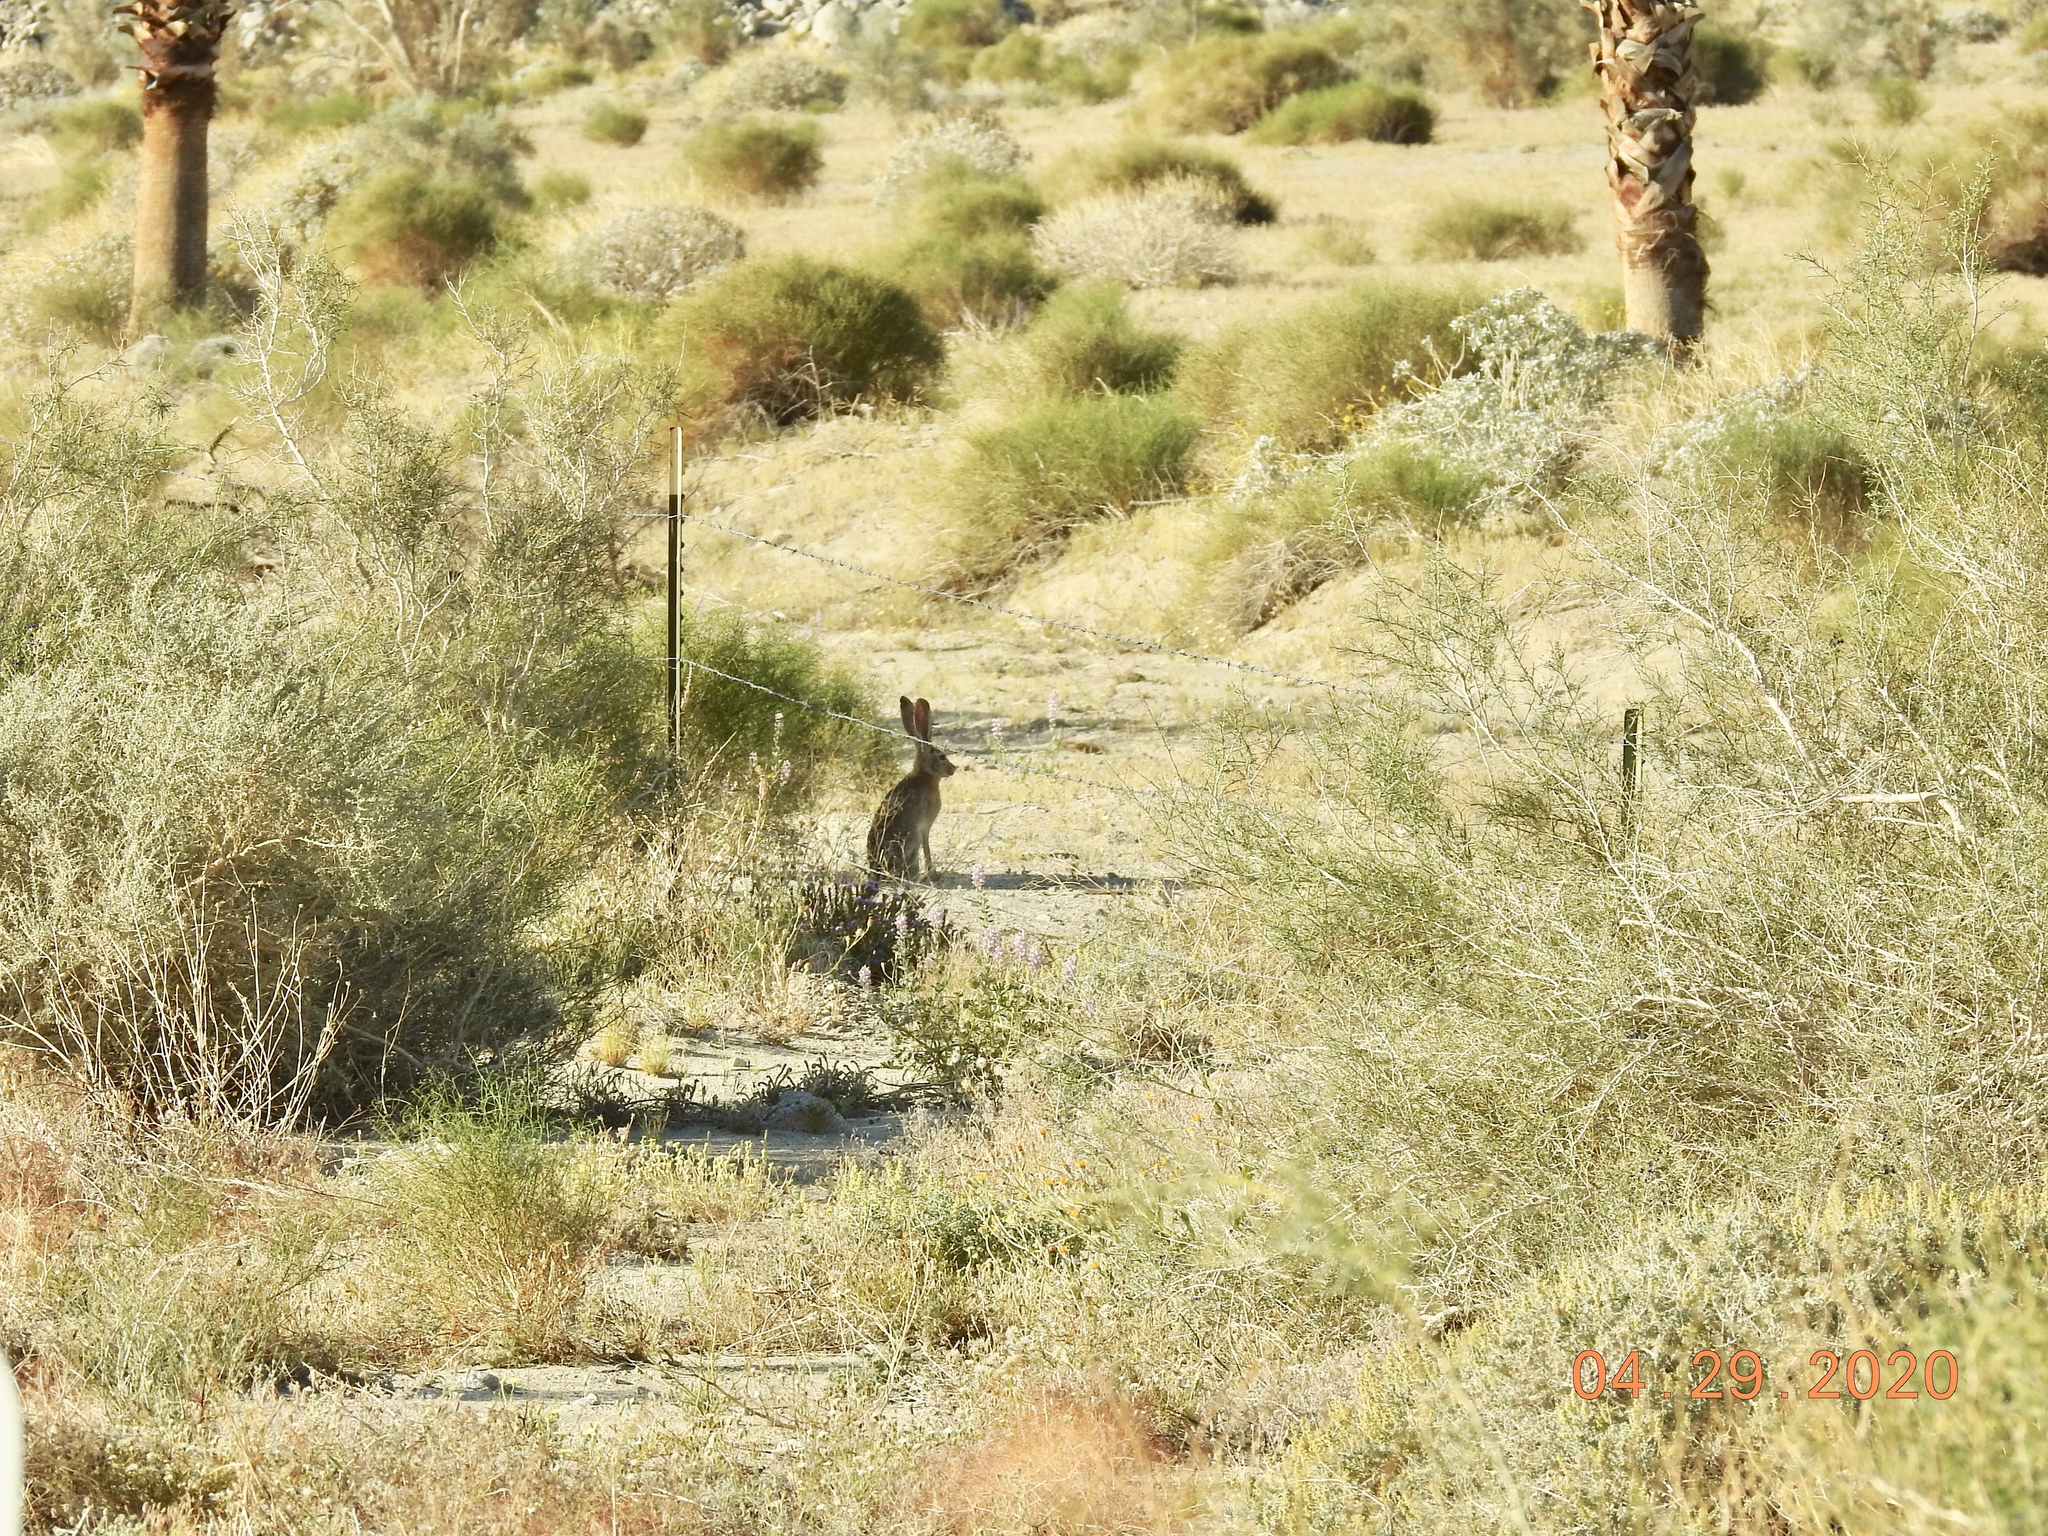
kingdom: Animalia
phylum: Chordata
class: Mammalia
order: Lagomorpha
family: Leporidae
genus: Lepus
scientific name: Lepus californicus
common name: Black-tailed jackrabbit
